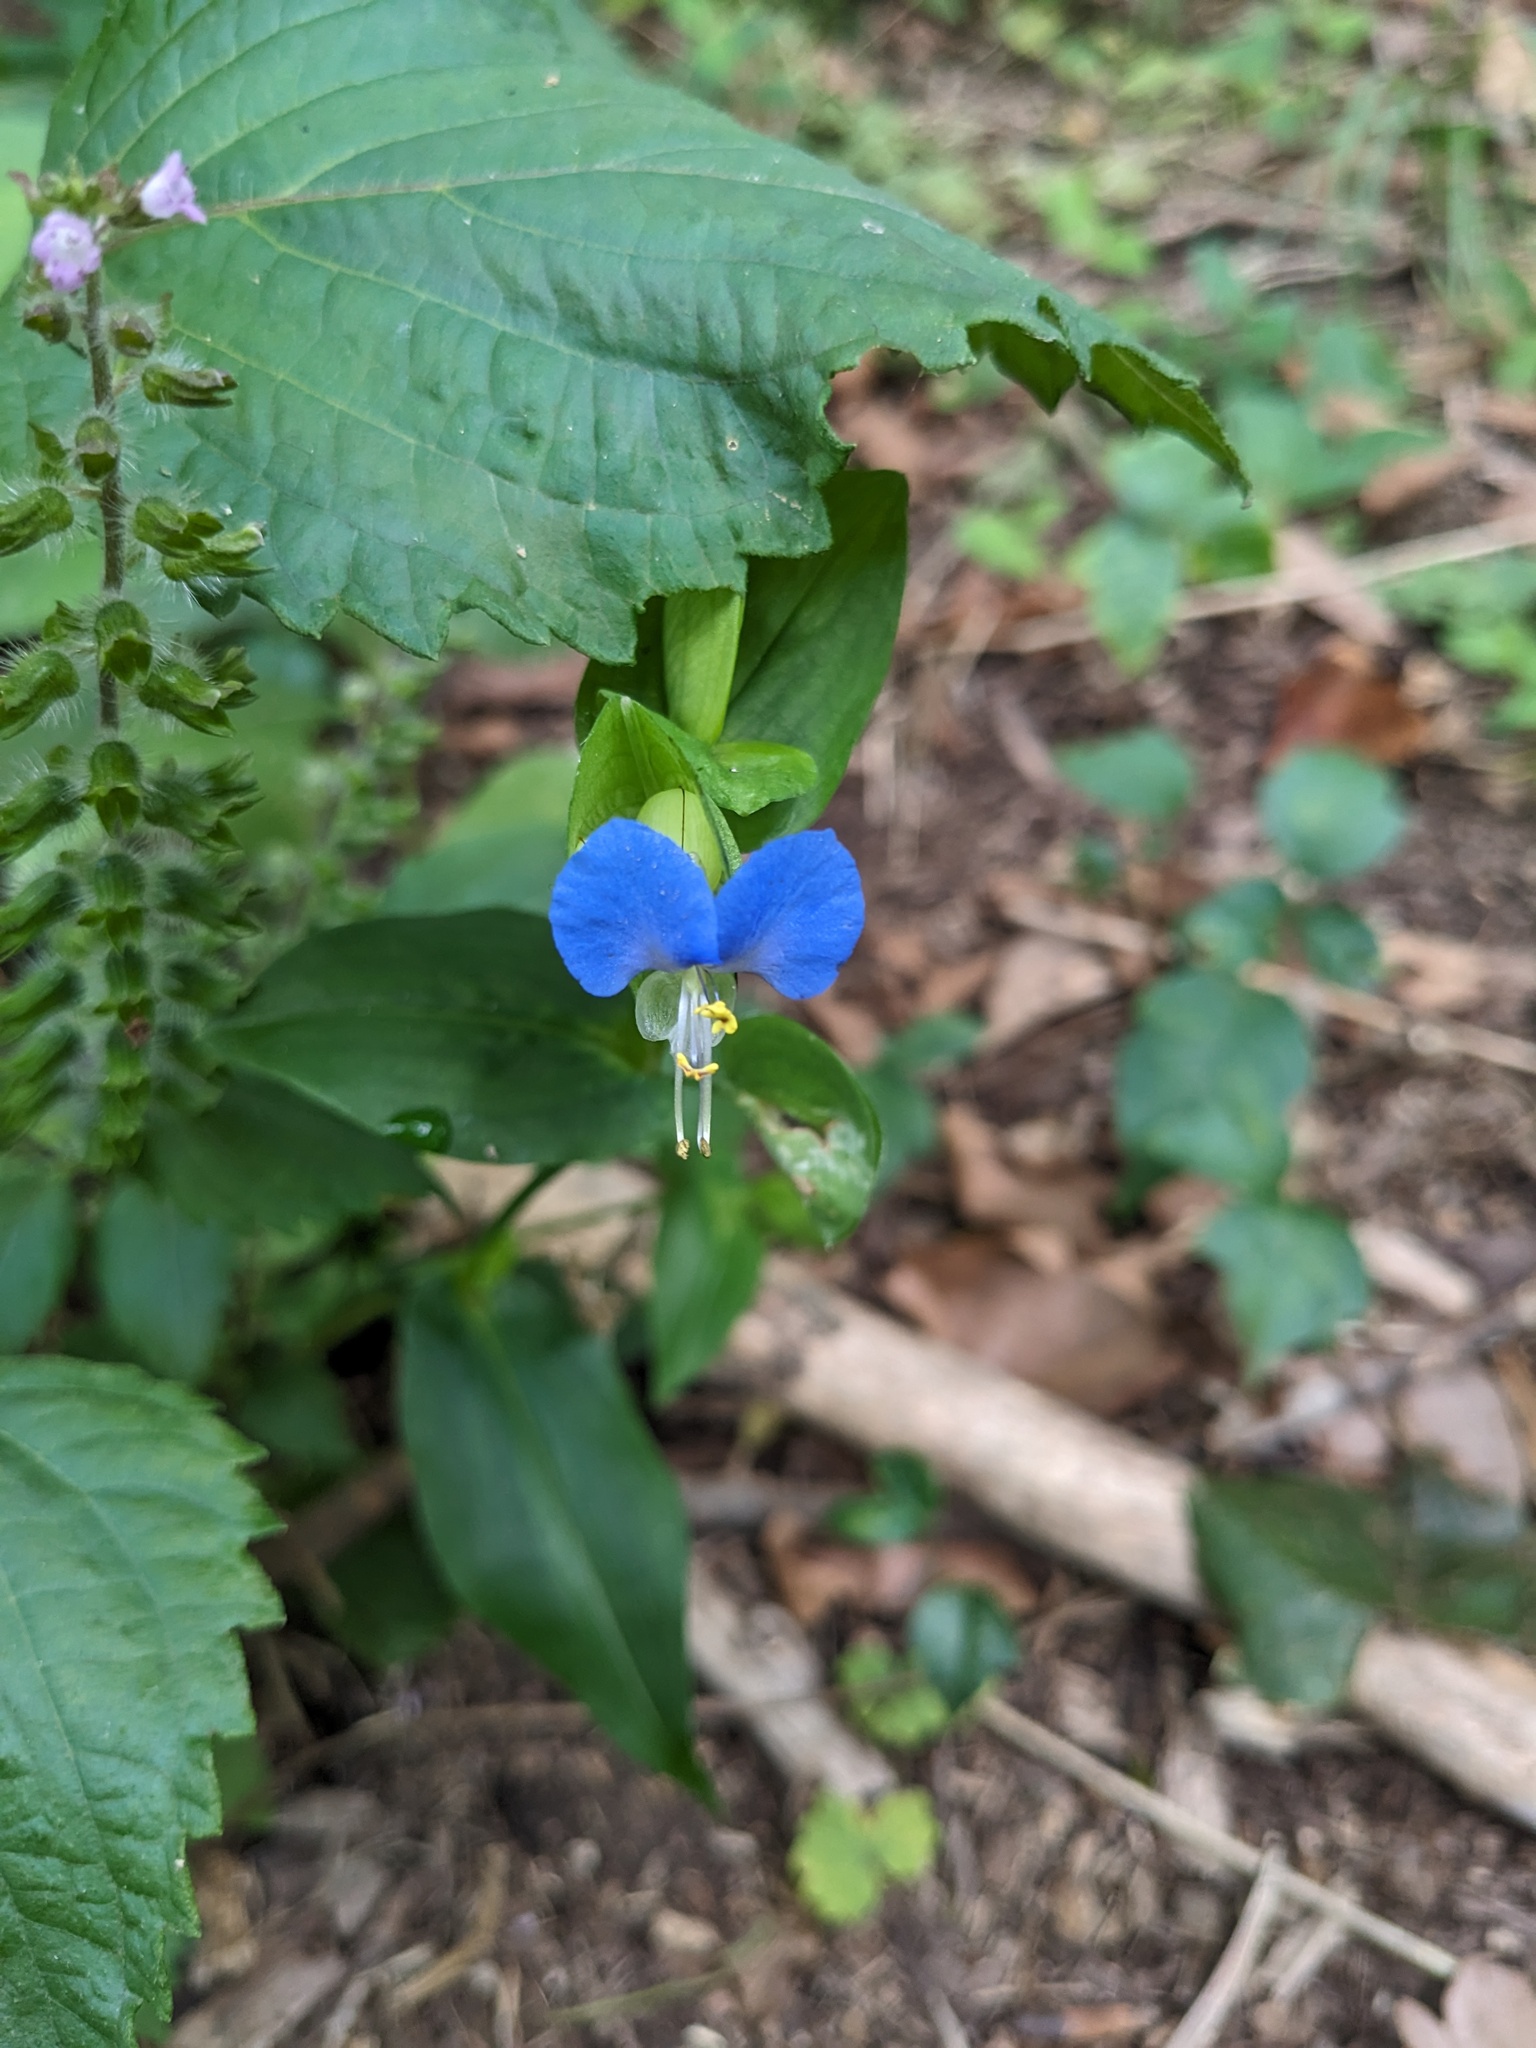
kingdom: Plantae
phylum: Tracheophyta
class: Liliopsida
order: Commelinales
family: Commelinaceae
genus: Commelina
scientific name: Commelina communis
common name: Asiatic dayflower
